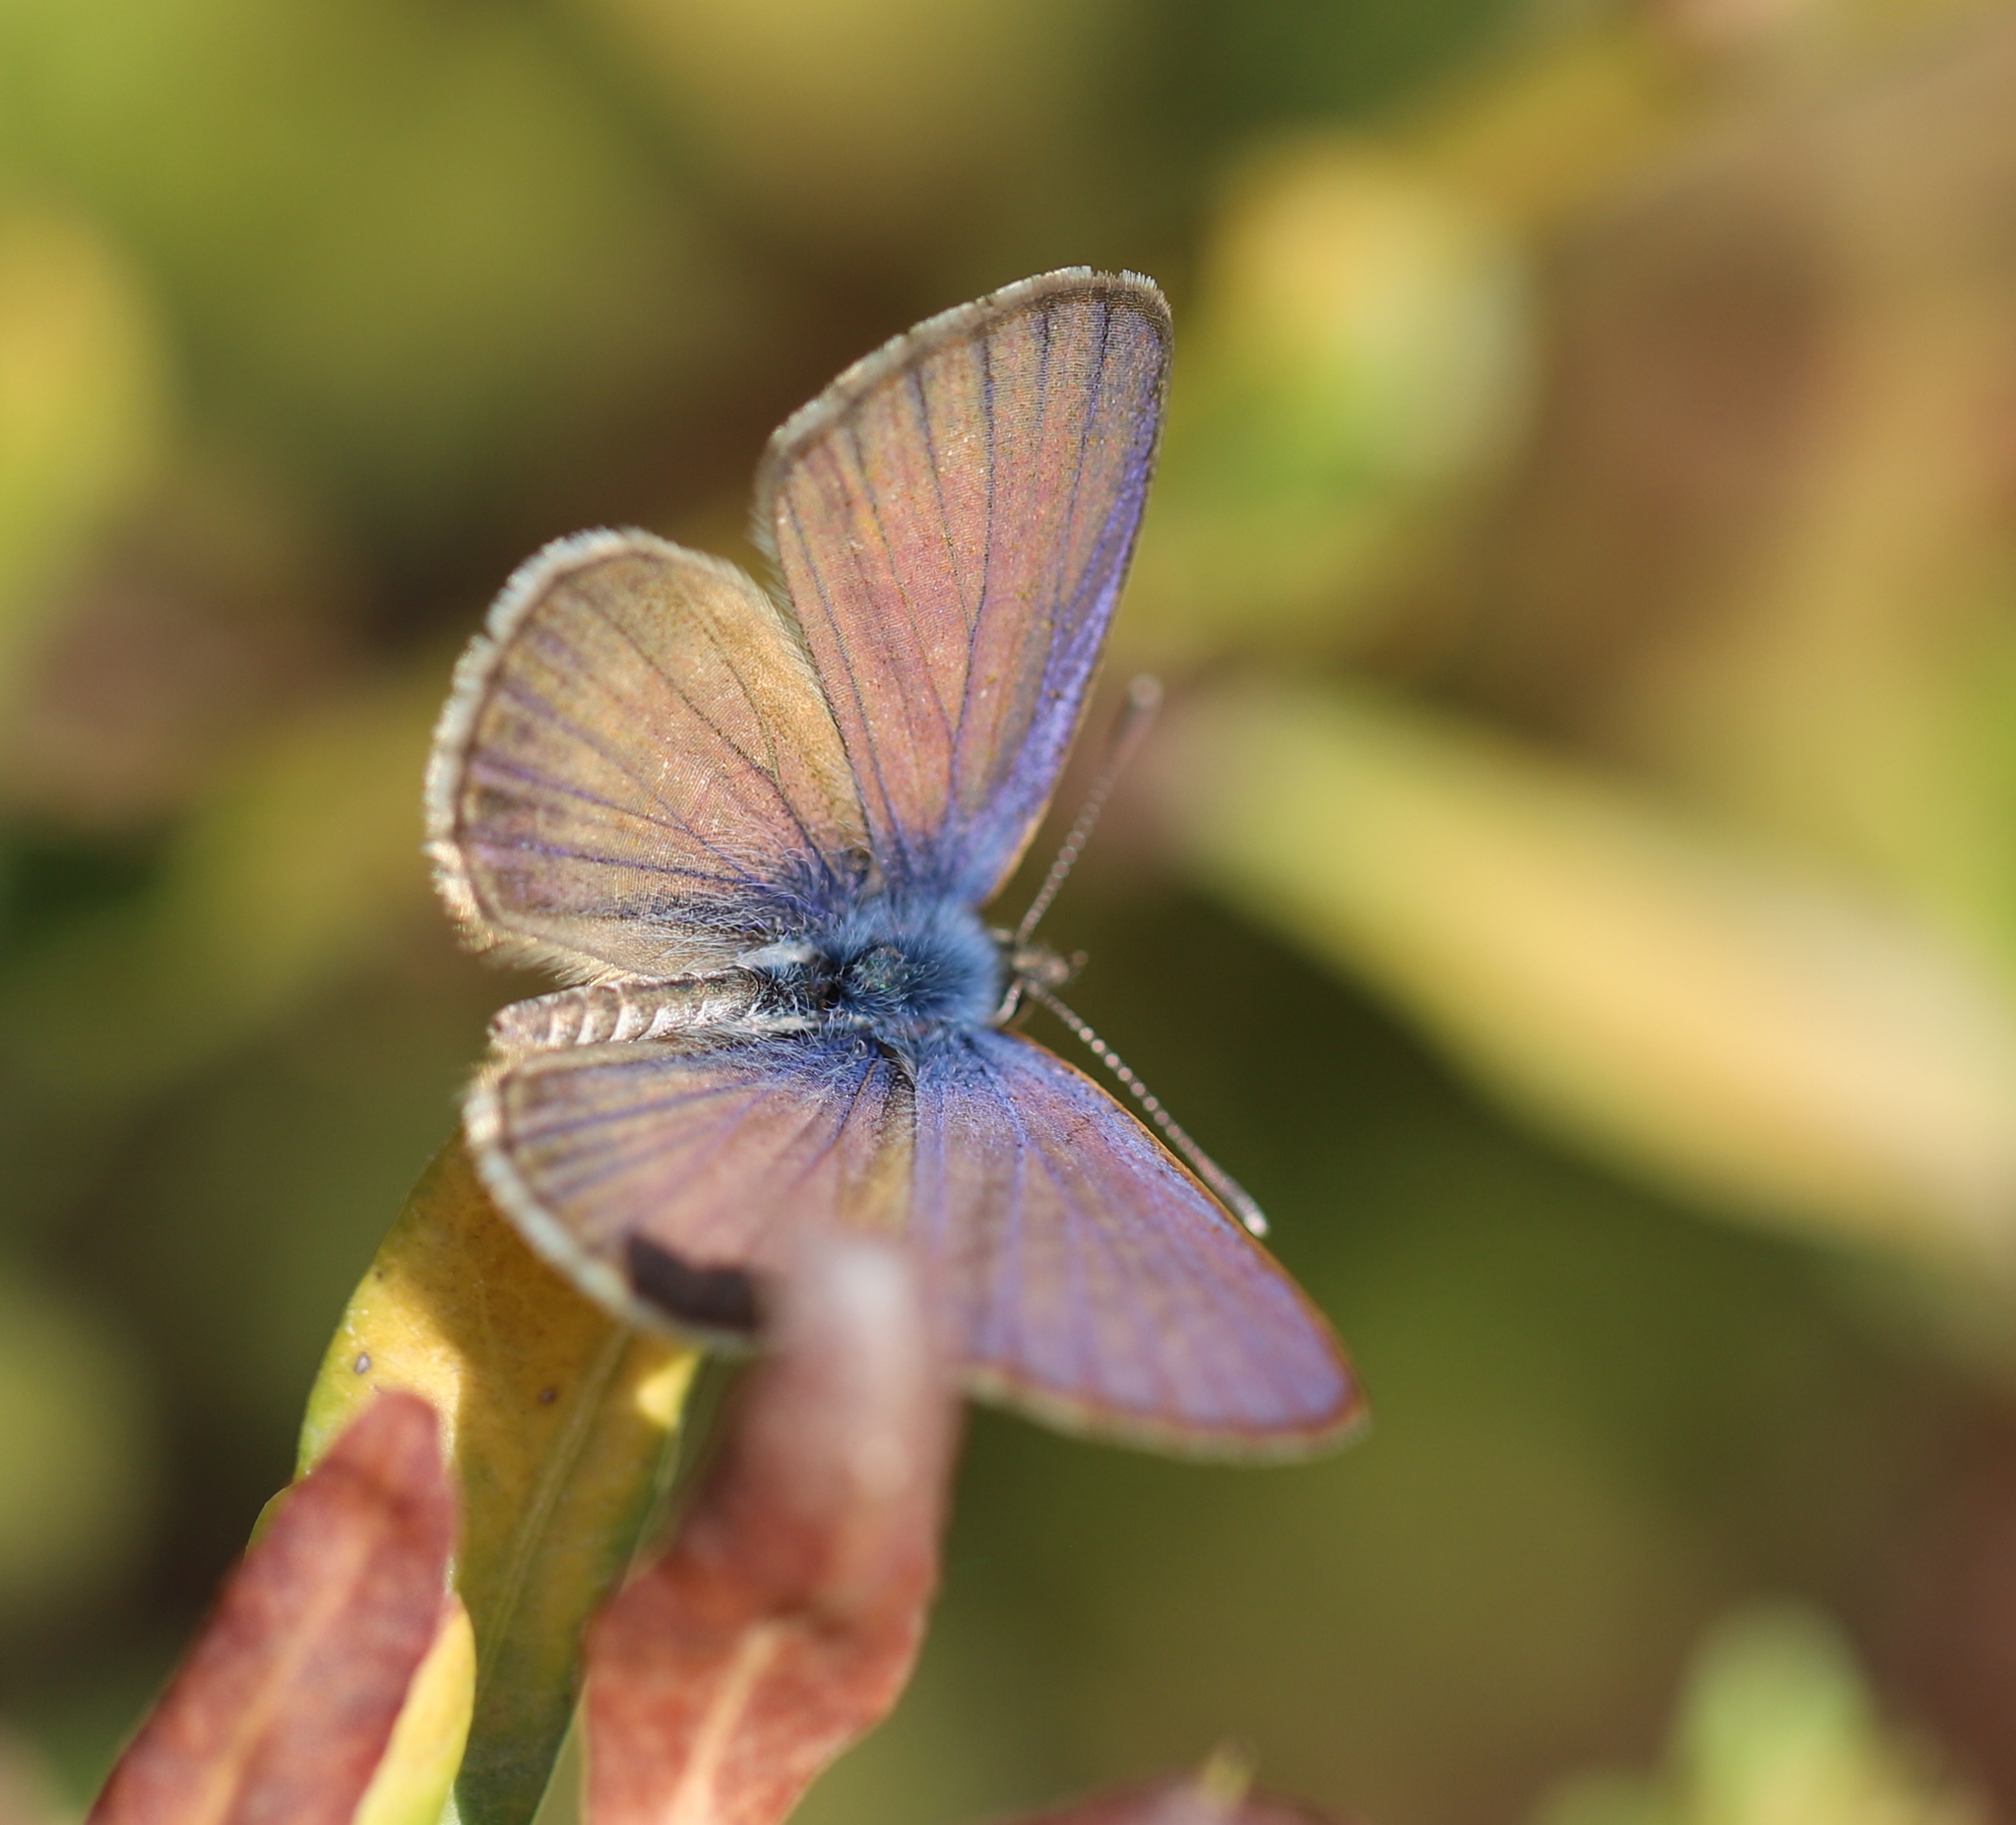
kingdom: Animalia
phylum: Arthropoda
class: Insecta
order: Lepidoptera
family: Lycaenidae
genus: Leptotes
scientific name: Leptotes trigemmatus
